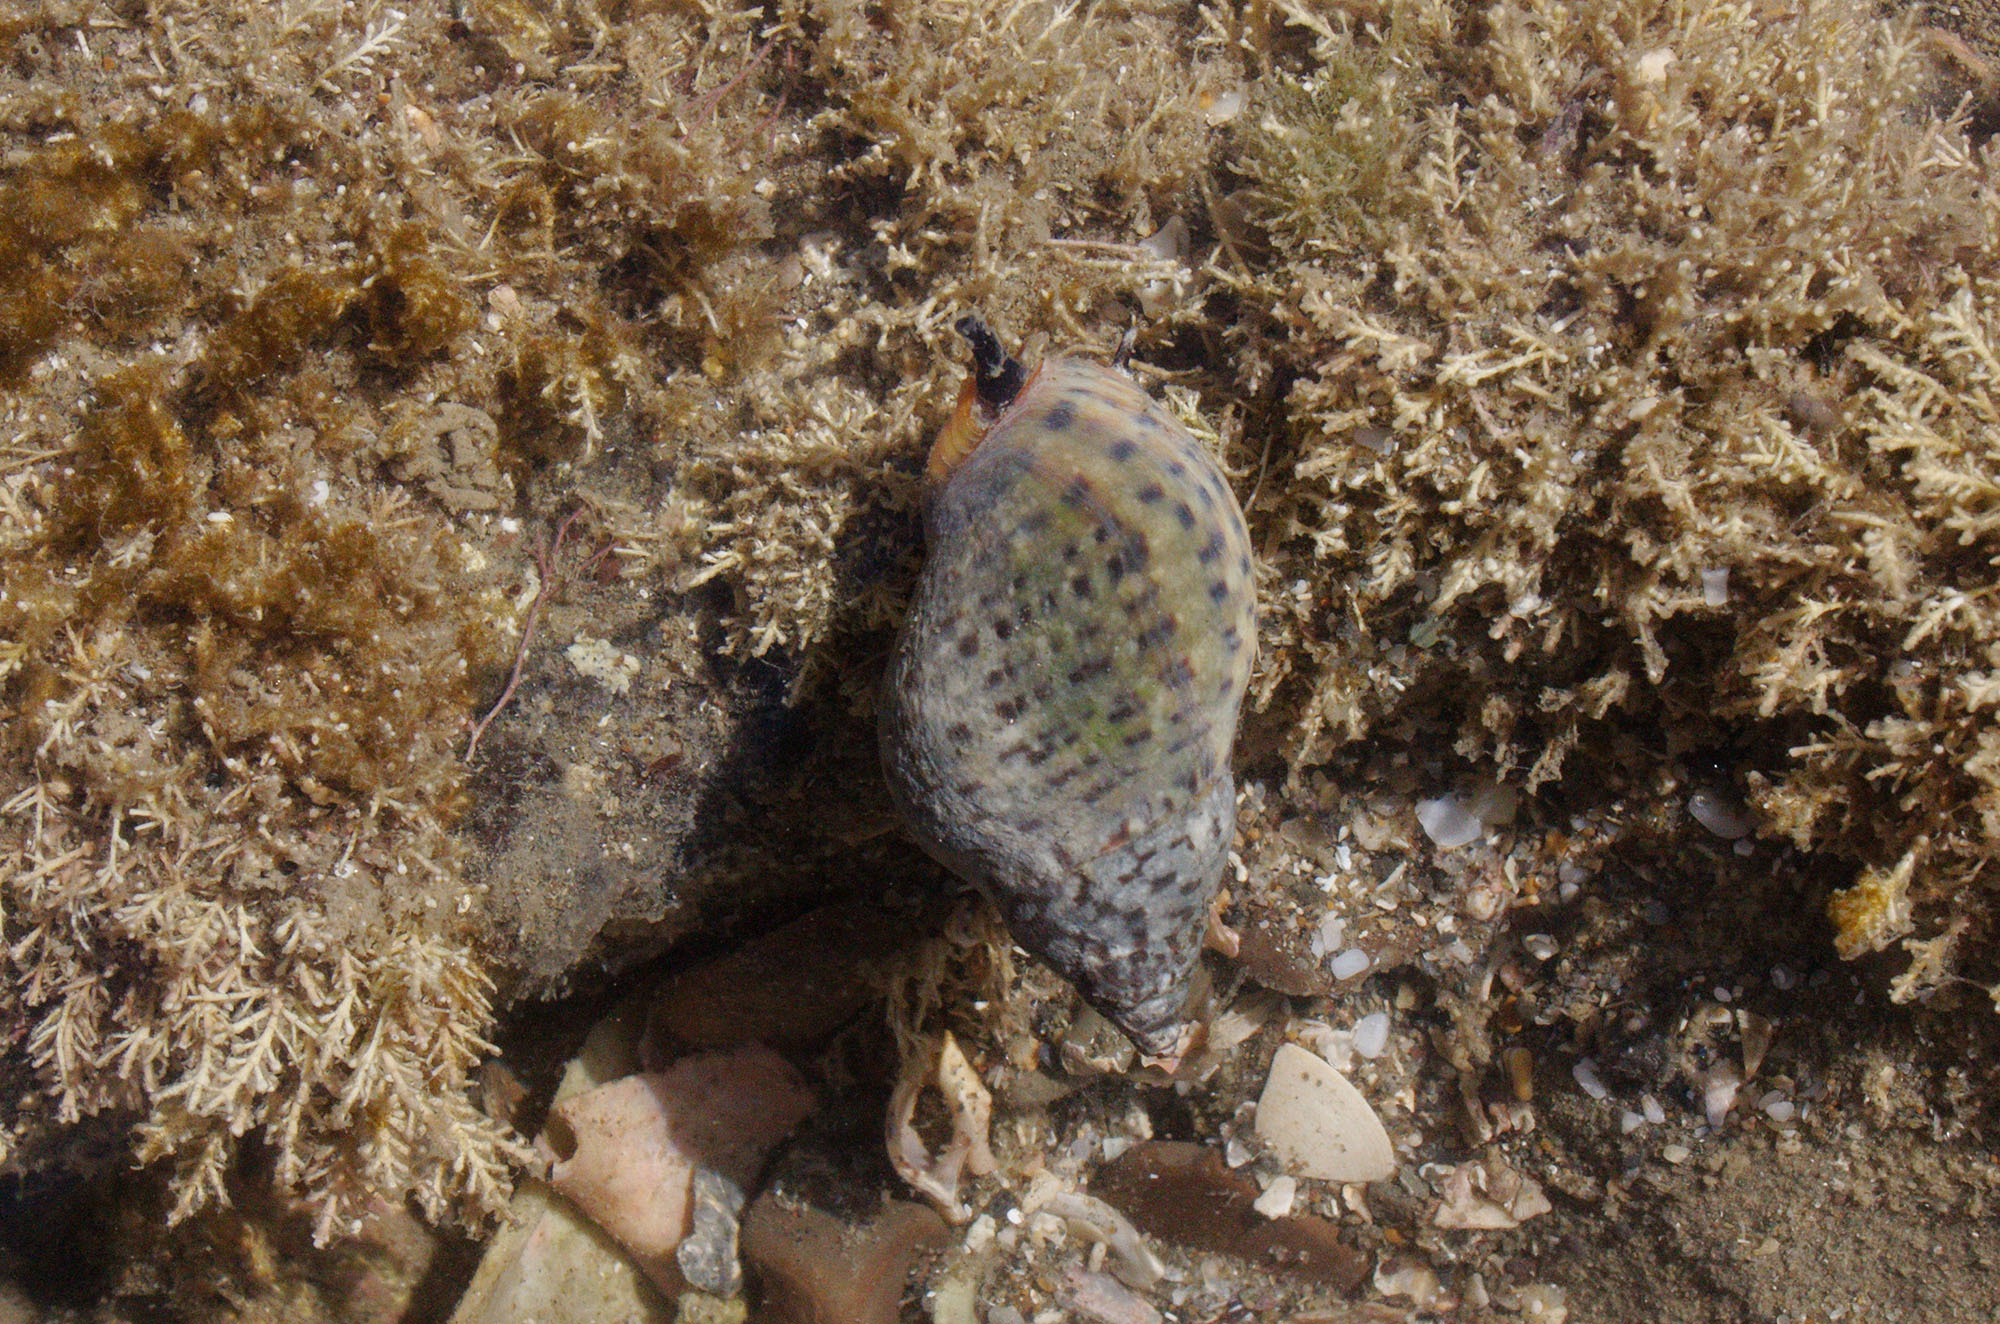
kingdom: Animalia
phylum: Mollusca
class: Gastropoda
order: Neogastropoda
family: Cominellidae
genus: Cominella
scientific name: Cominella maculosa
